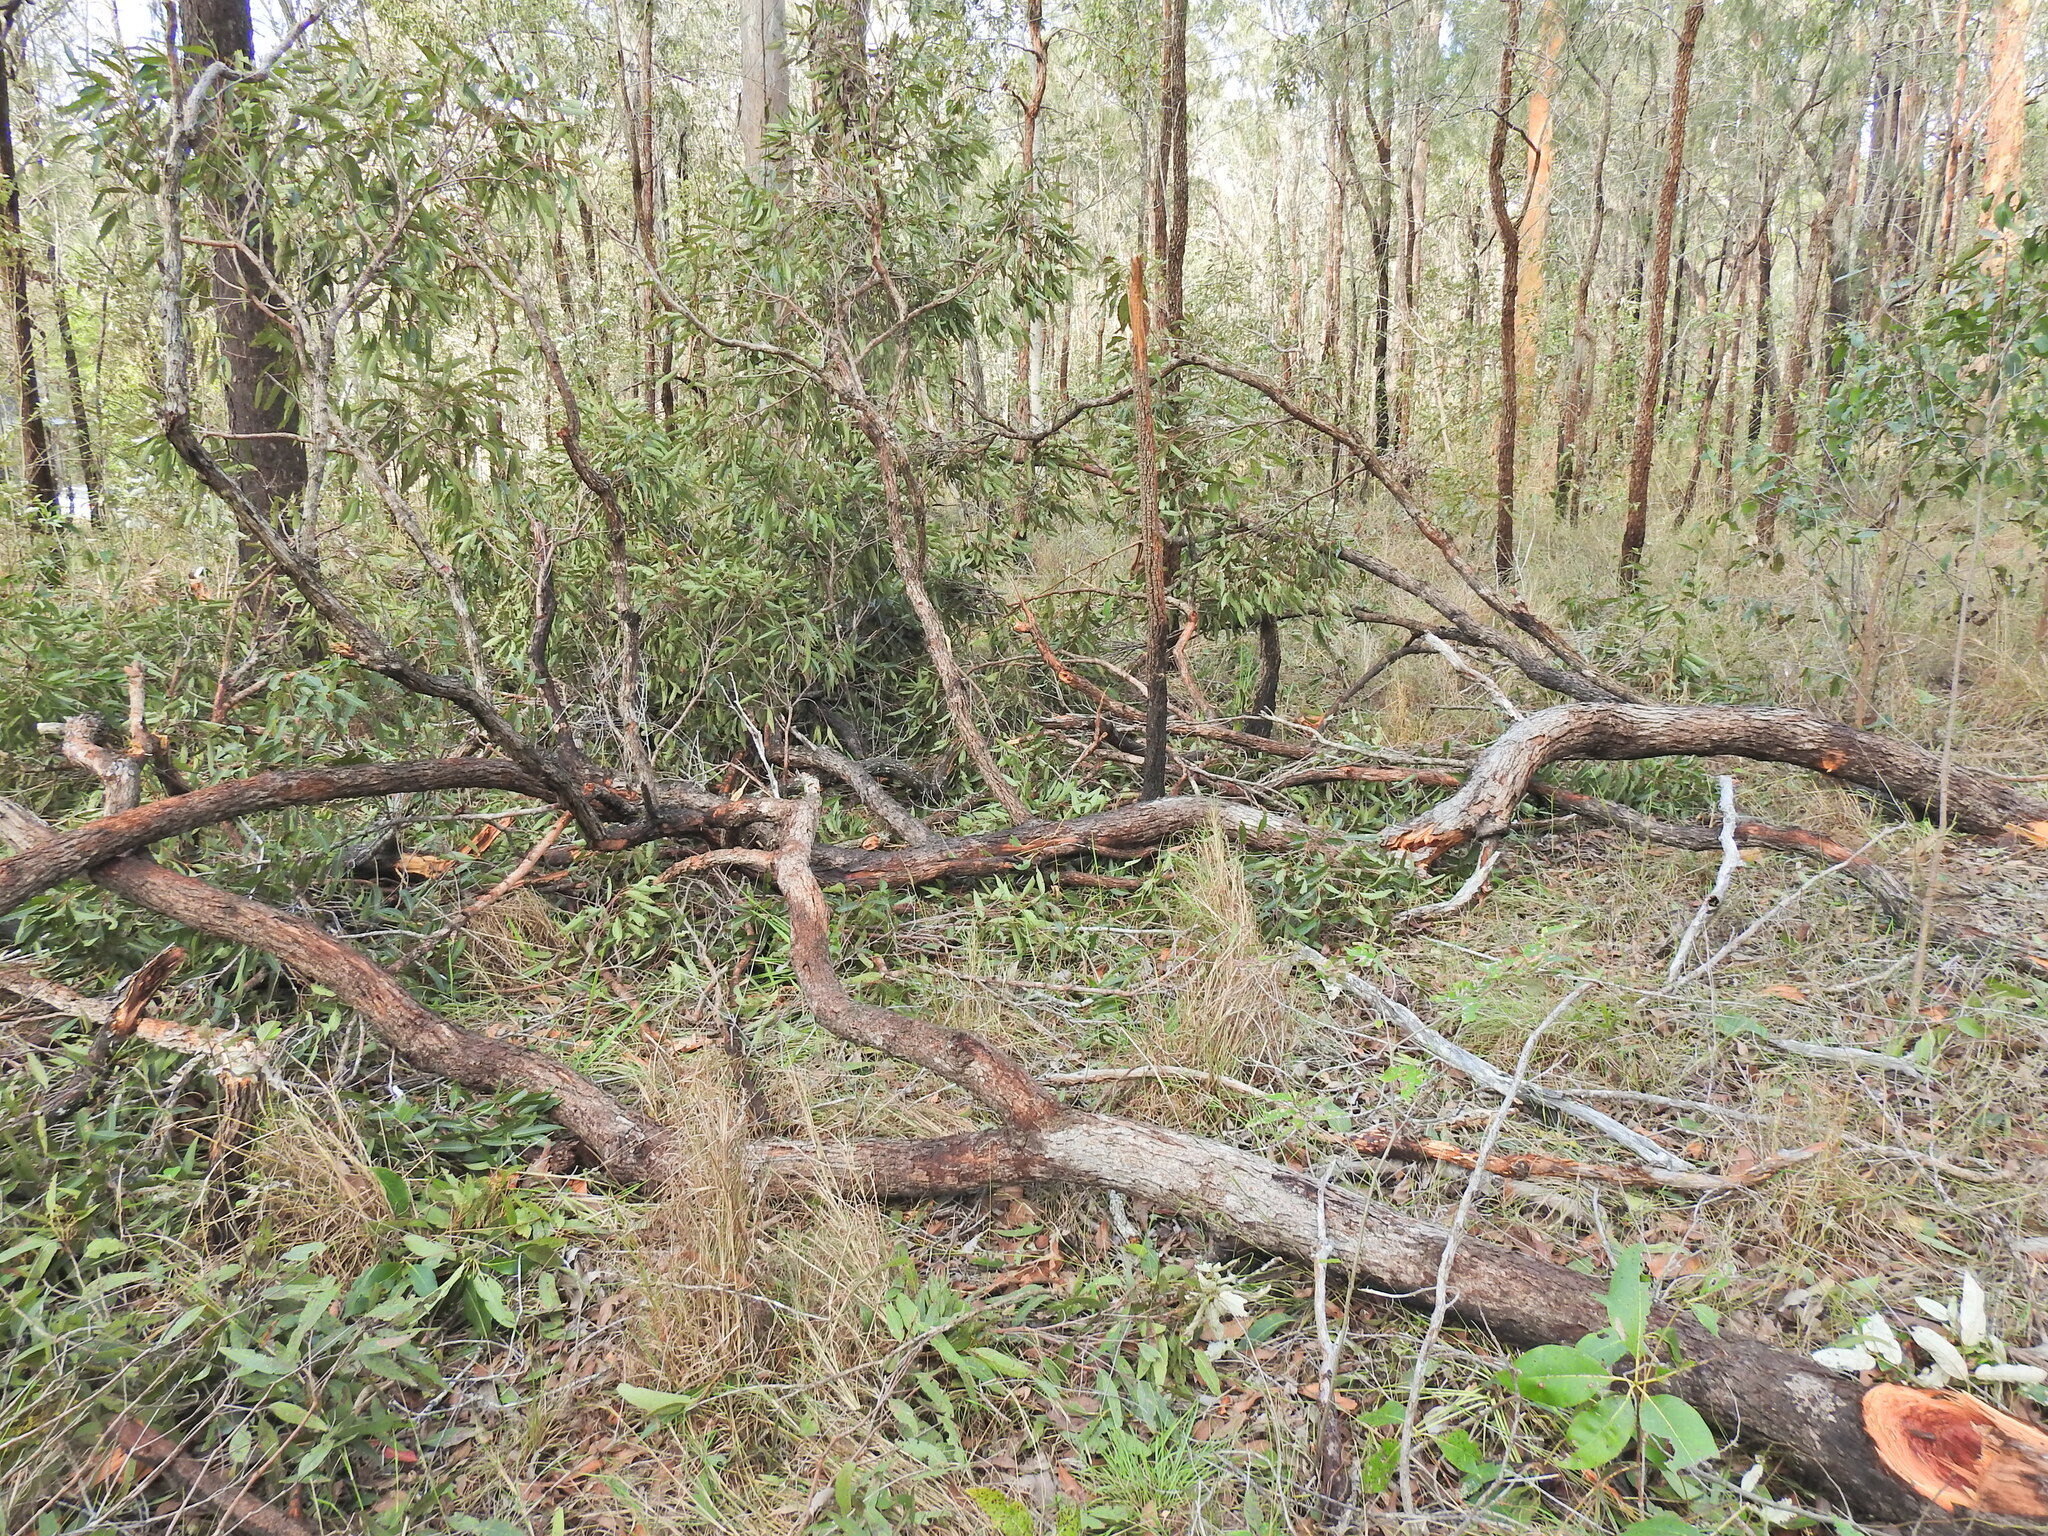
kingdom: Plantae
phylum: Tracheophyta
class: Magnoliopsida
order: Myrtales
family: Myrtaceae
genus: Corymbia
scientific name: Corymbia intermedia
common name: Pink-bloodwood
